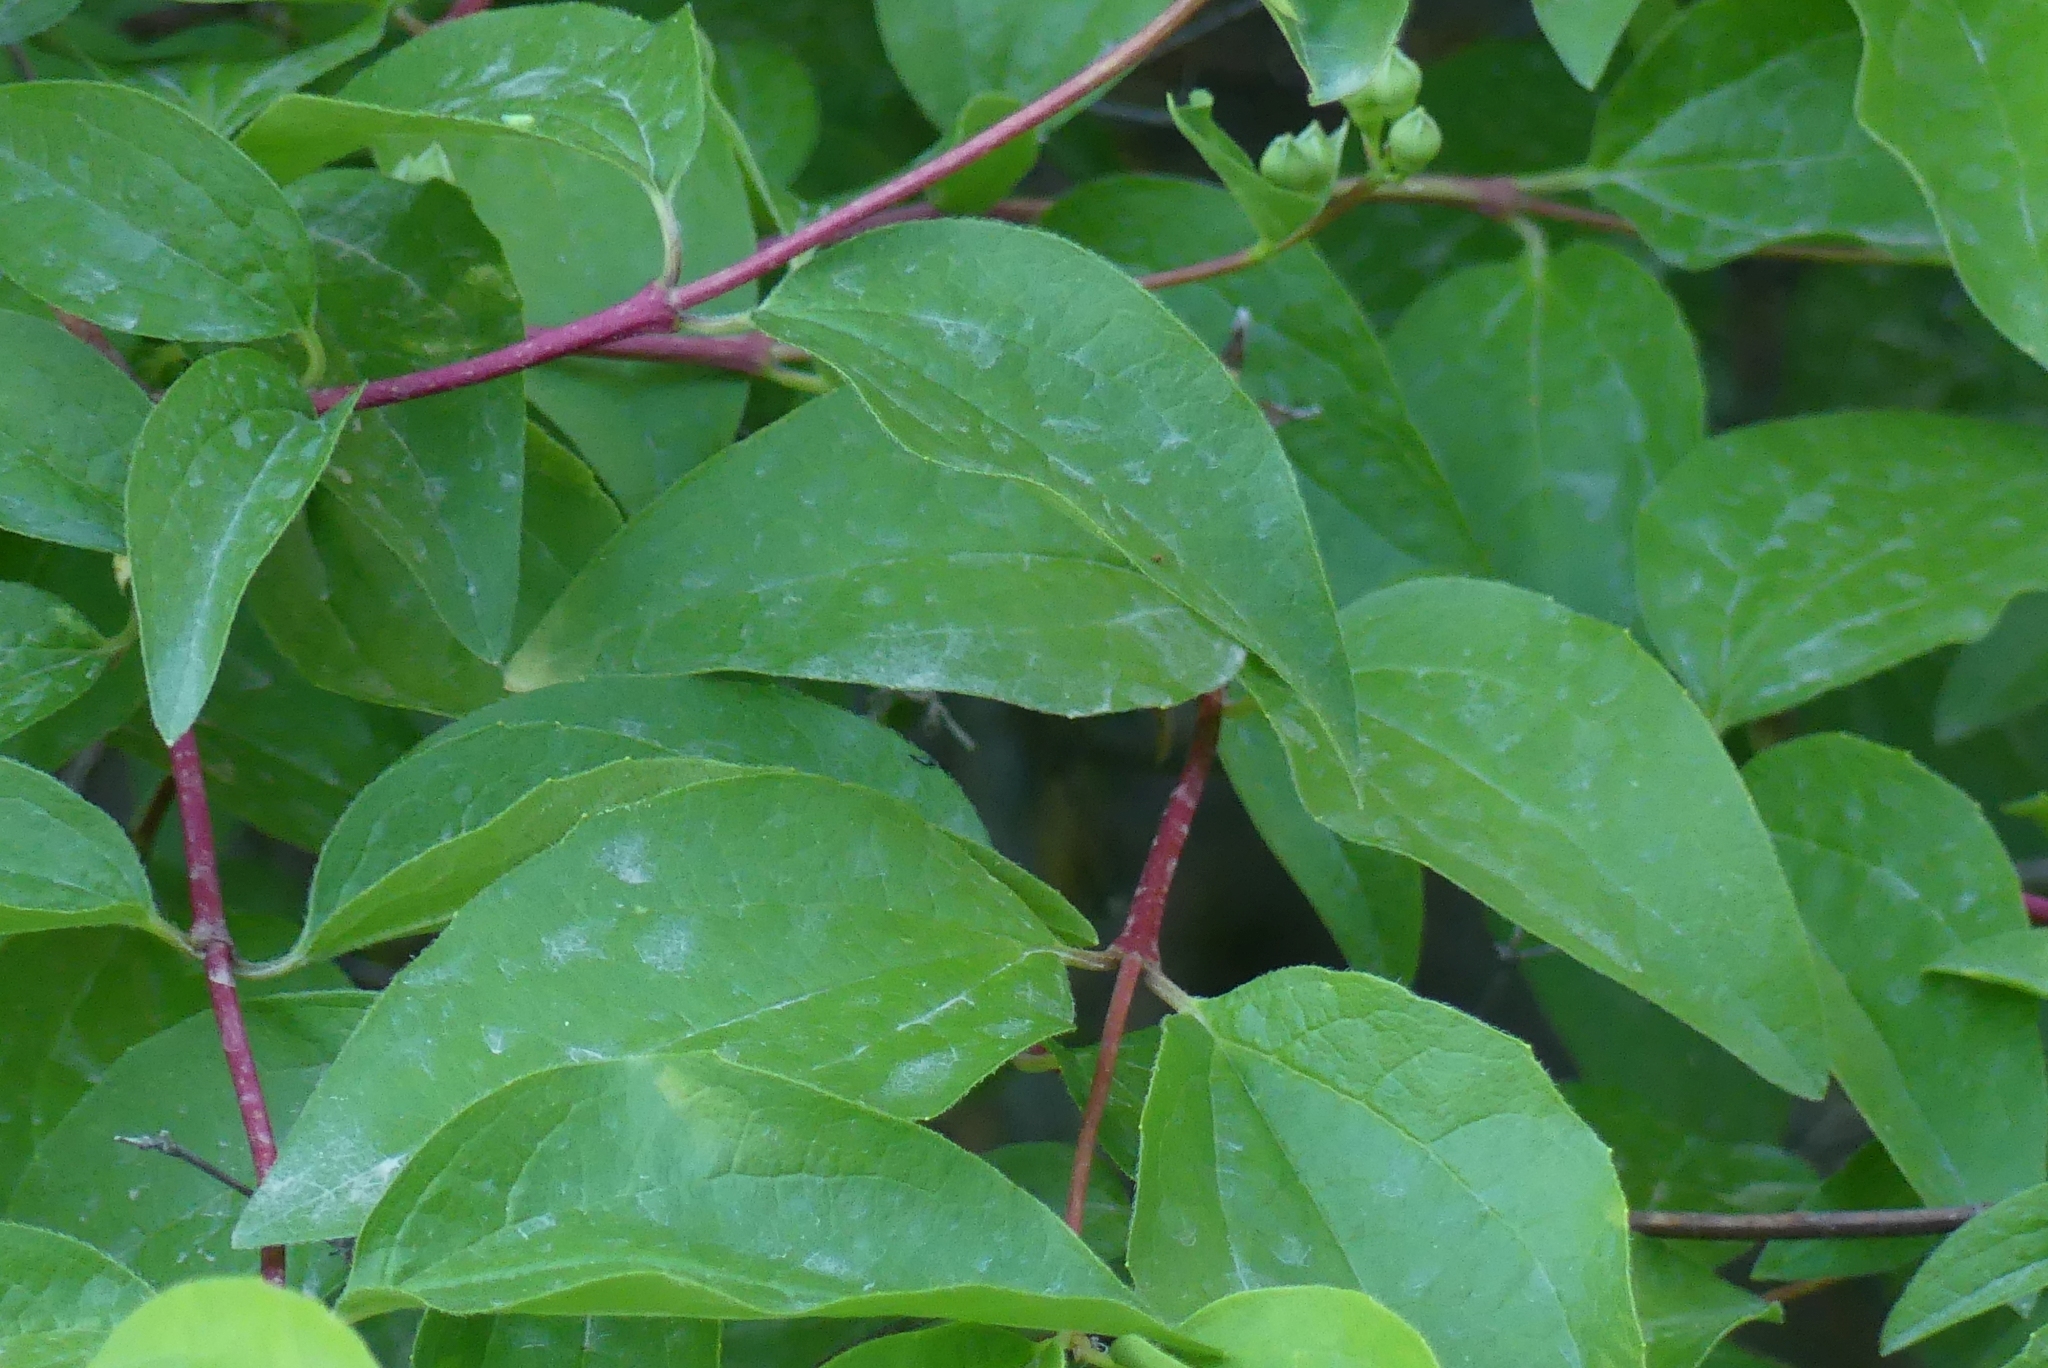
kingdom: Plantae
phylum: Tracheophyta
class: Magnoliopsida
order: Cornales
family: Cornaceae
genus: Cornus
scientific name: Cornus sericea
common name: Red-osier dogwood
